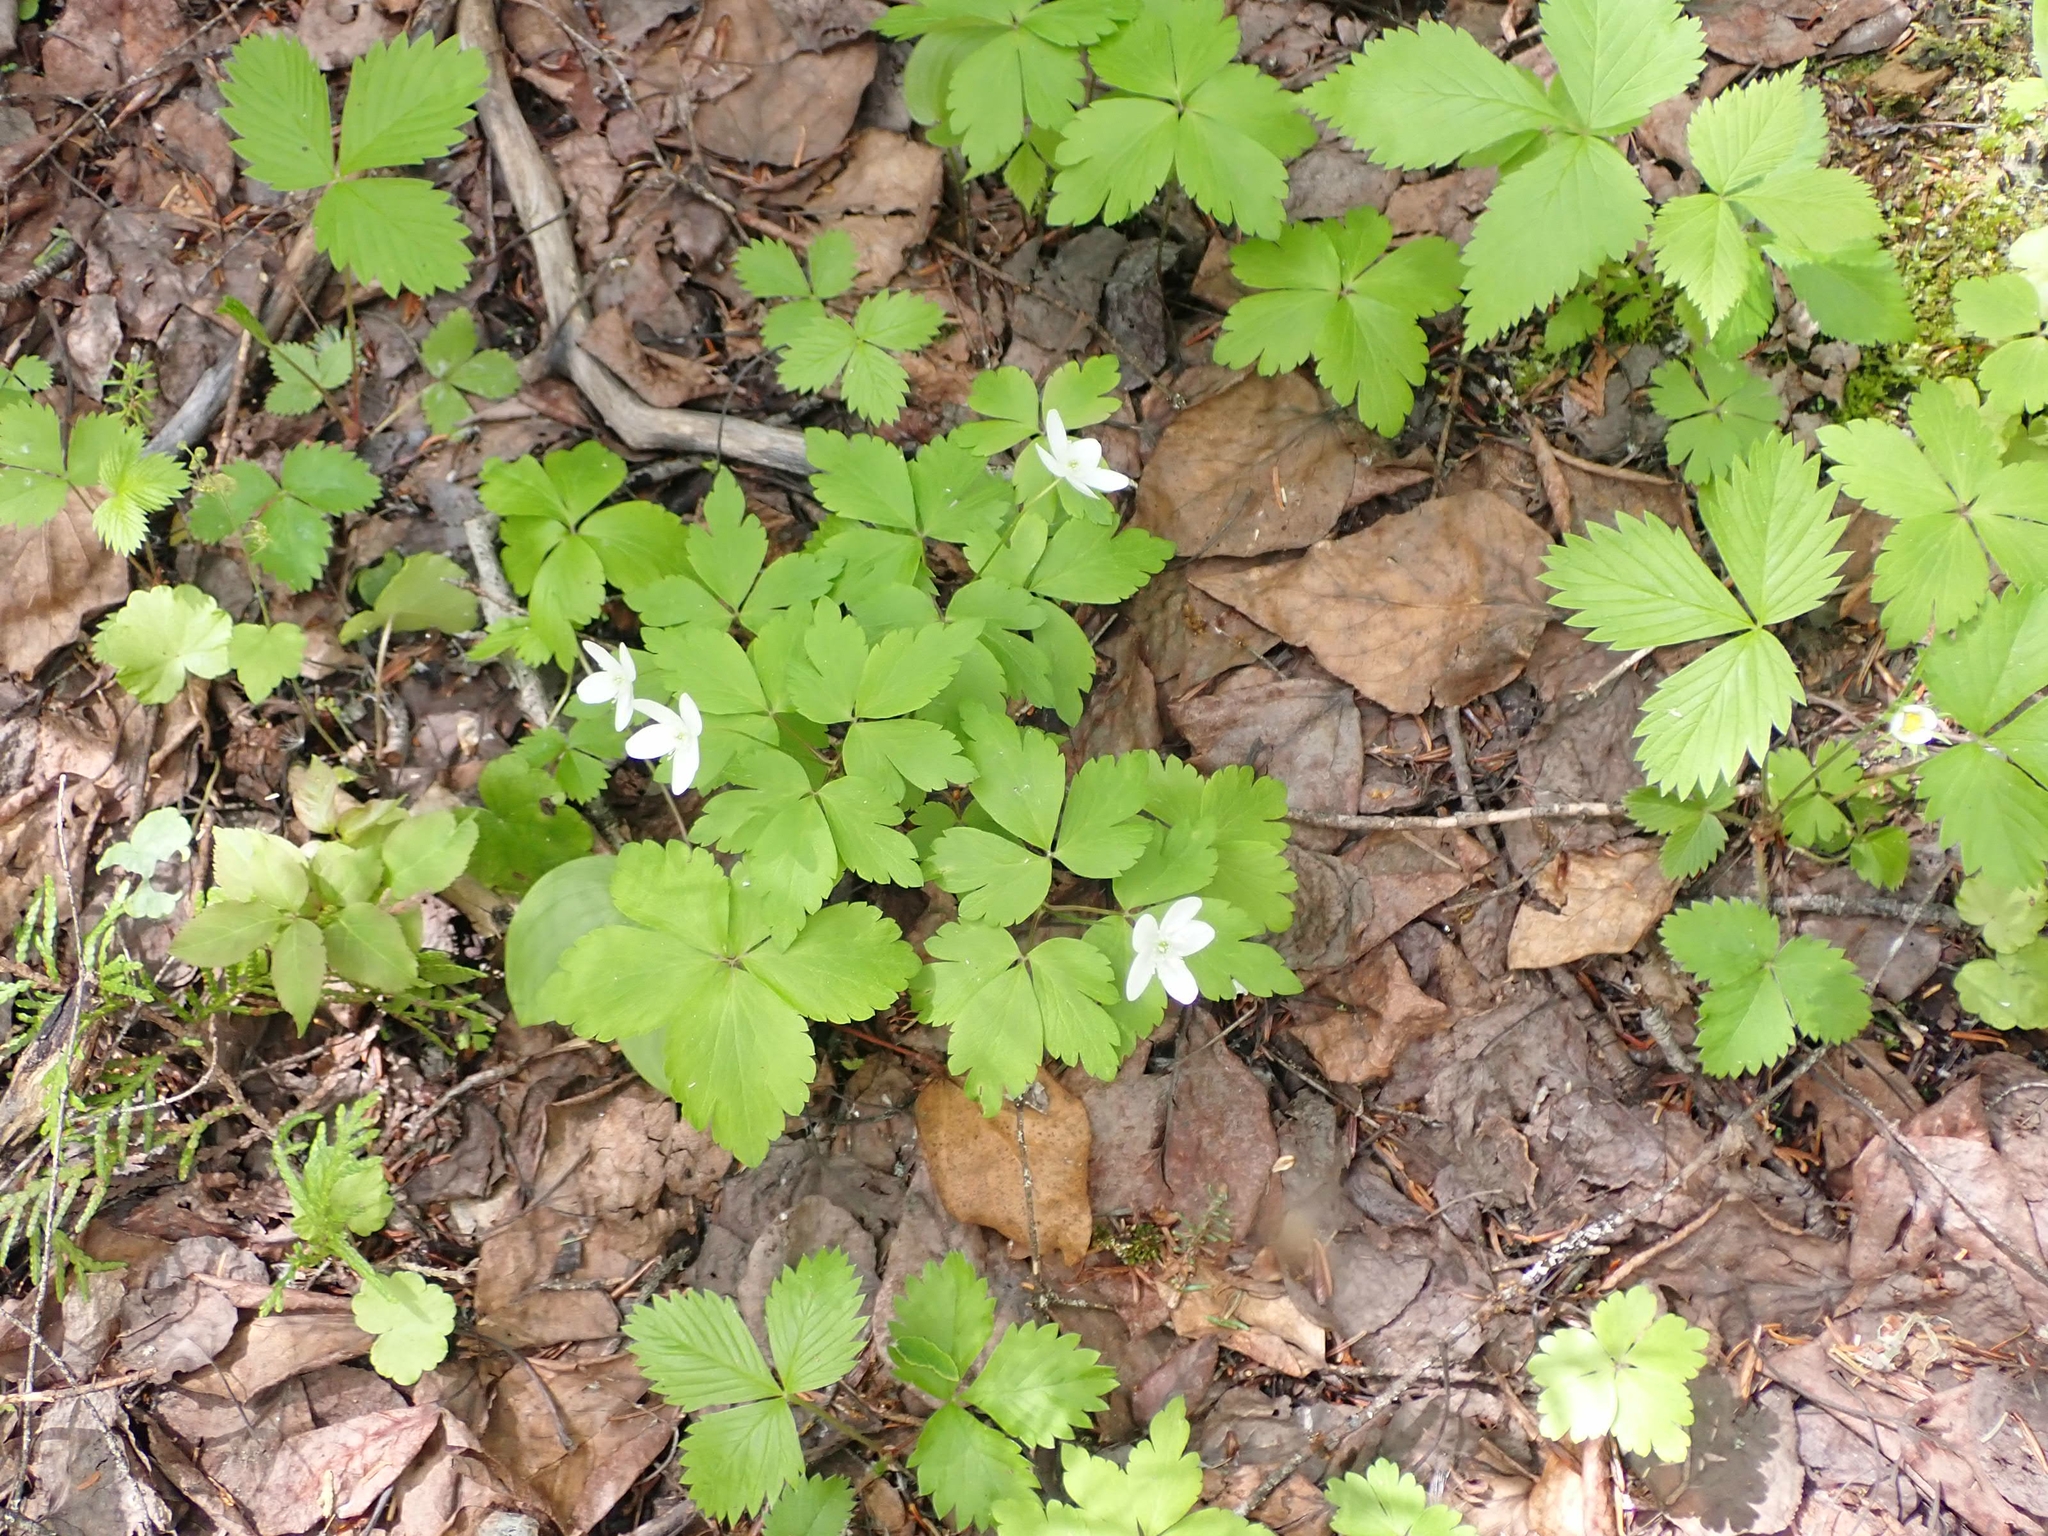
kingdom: Plantae
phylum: Tracheophyta
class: Magnoliopsida
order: Ranunculales
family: Ranunculaceae
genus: Anemone
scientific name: Anemone quinquefolia
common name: Wood anemone
